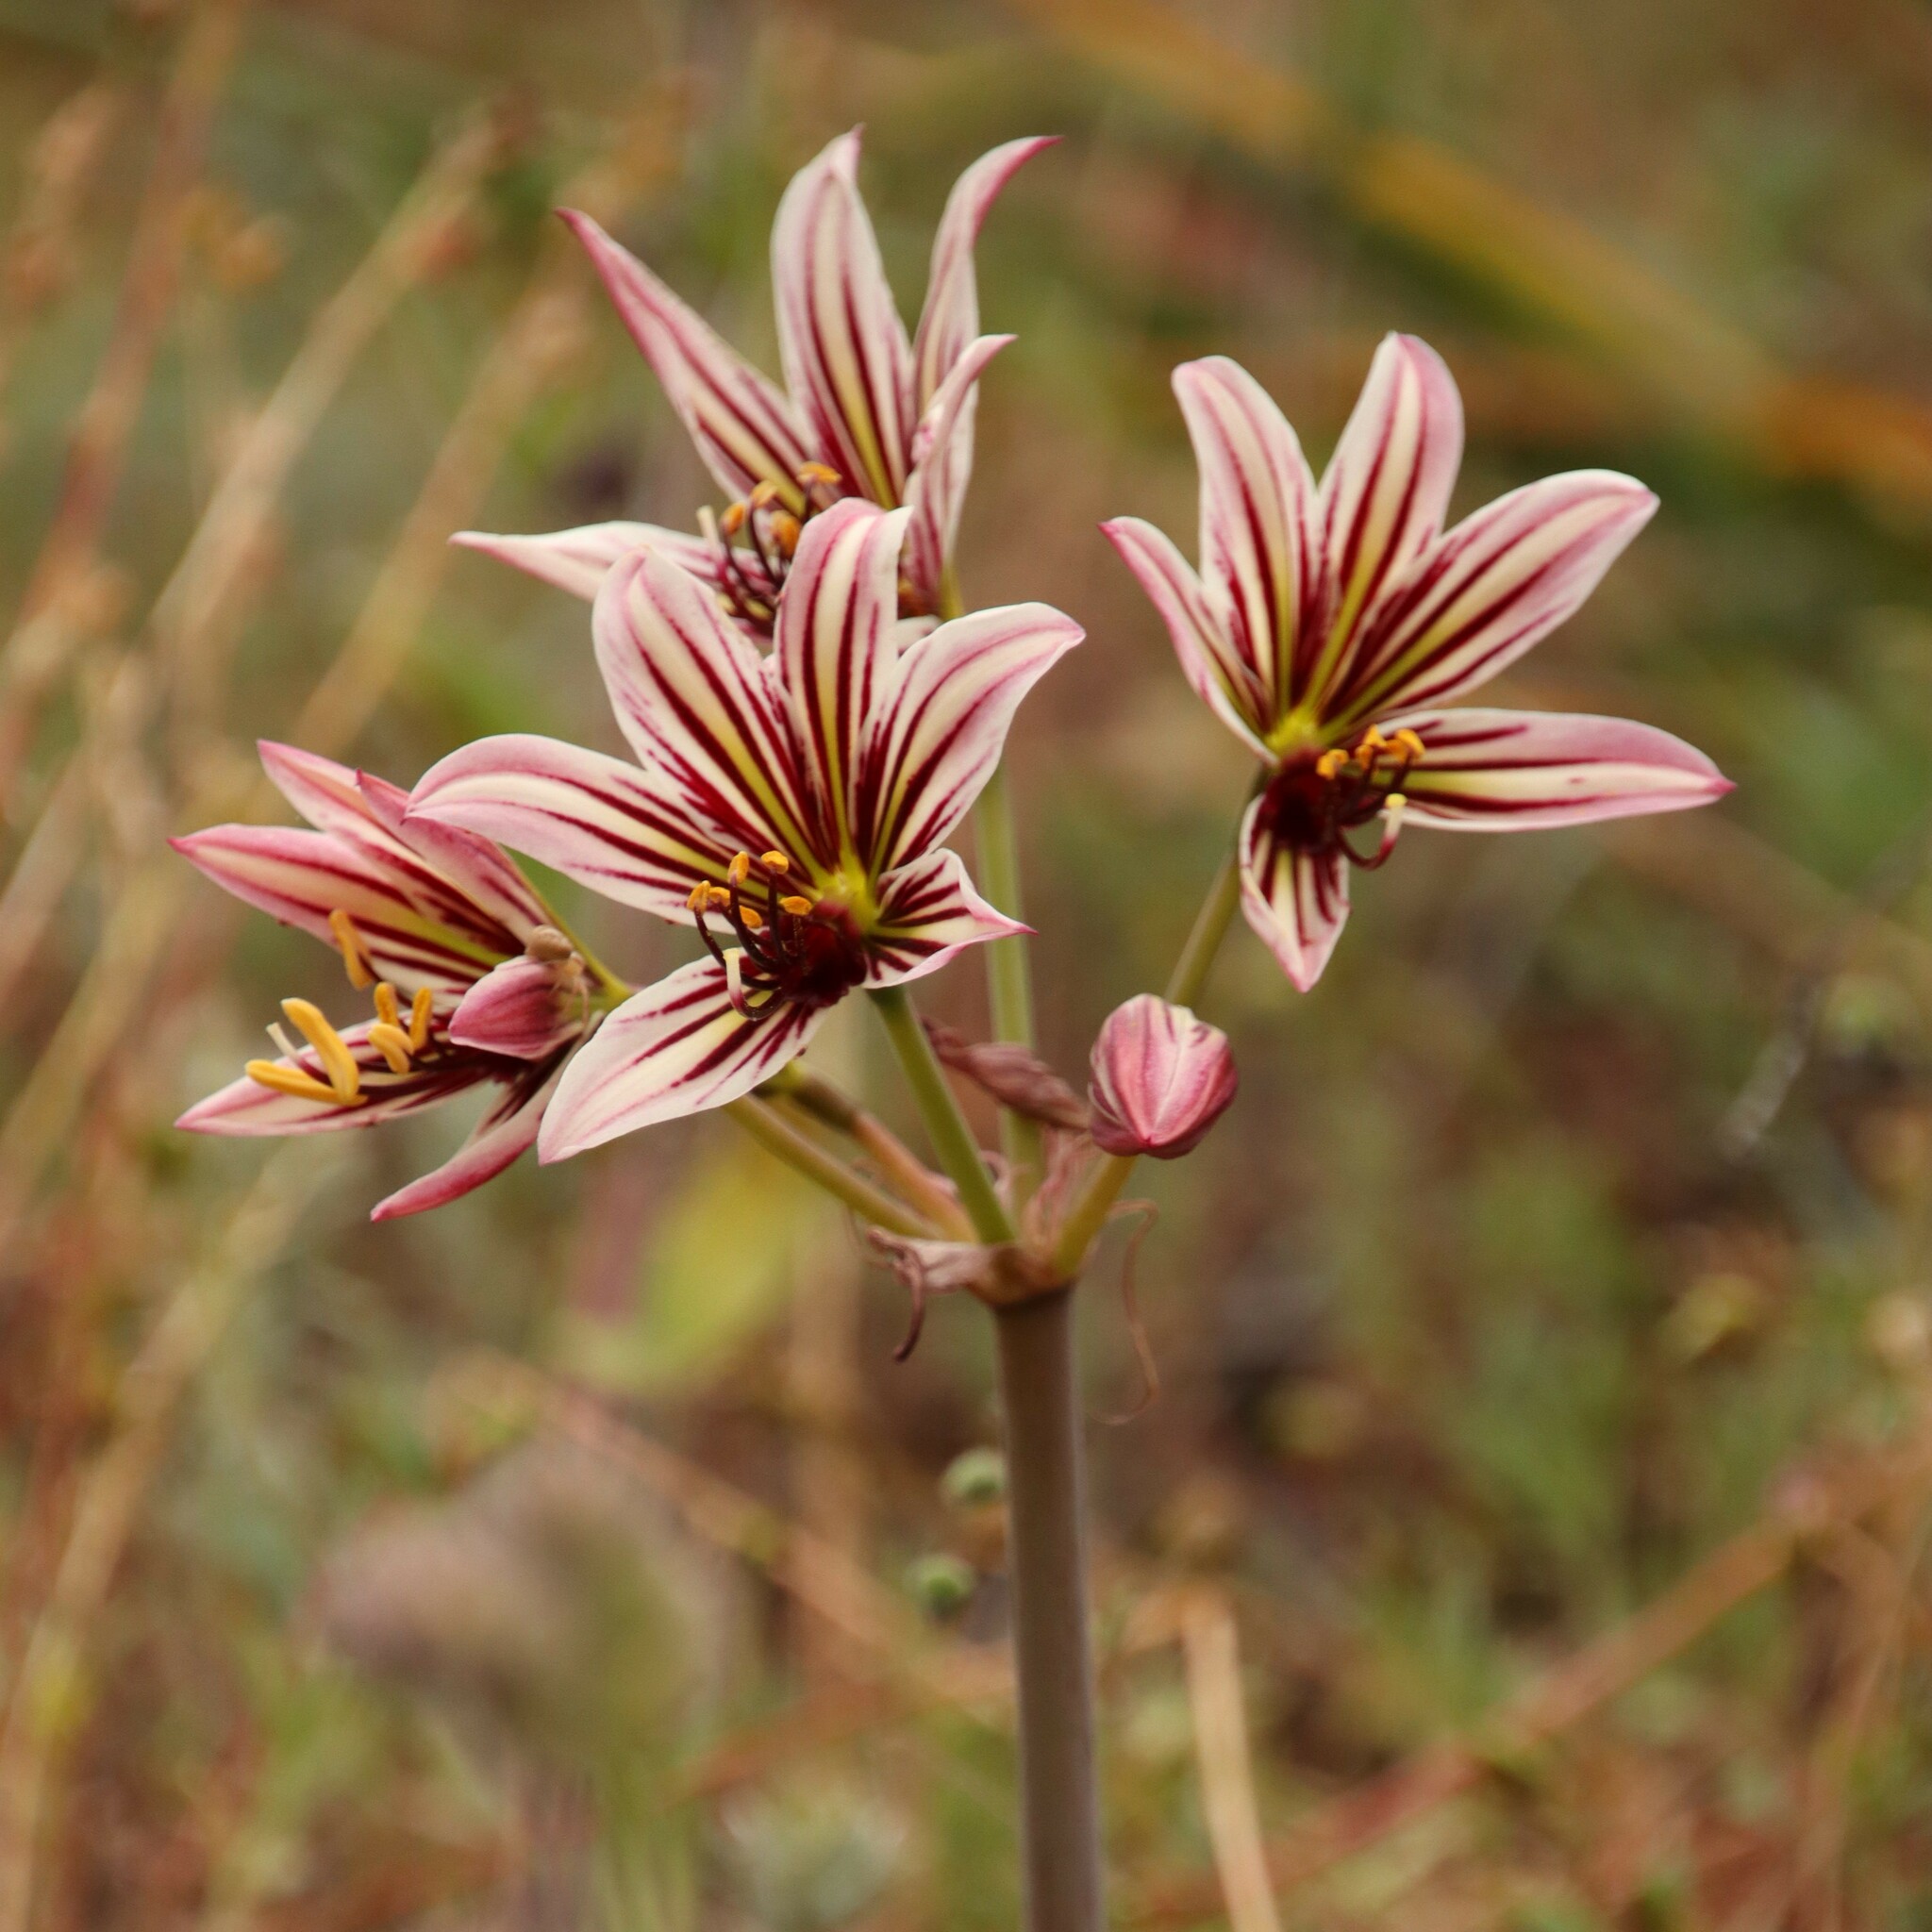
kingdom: Plantae
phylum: Tracheophyta
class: Liliopsida
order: Asparagales
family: Amaryllidaceae
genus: Phycella
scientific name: Phycella arzae
